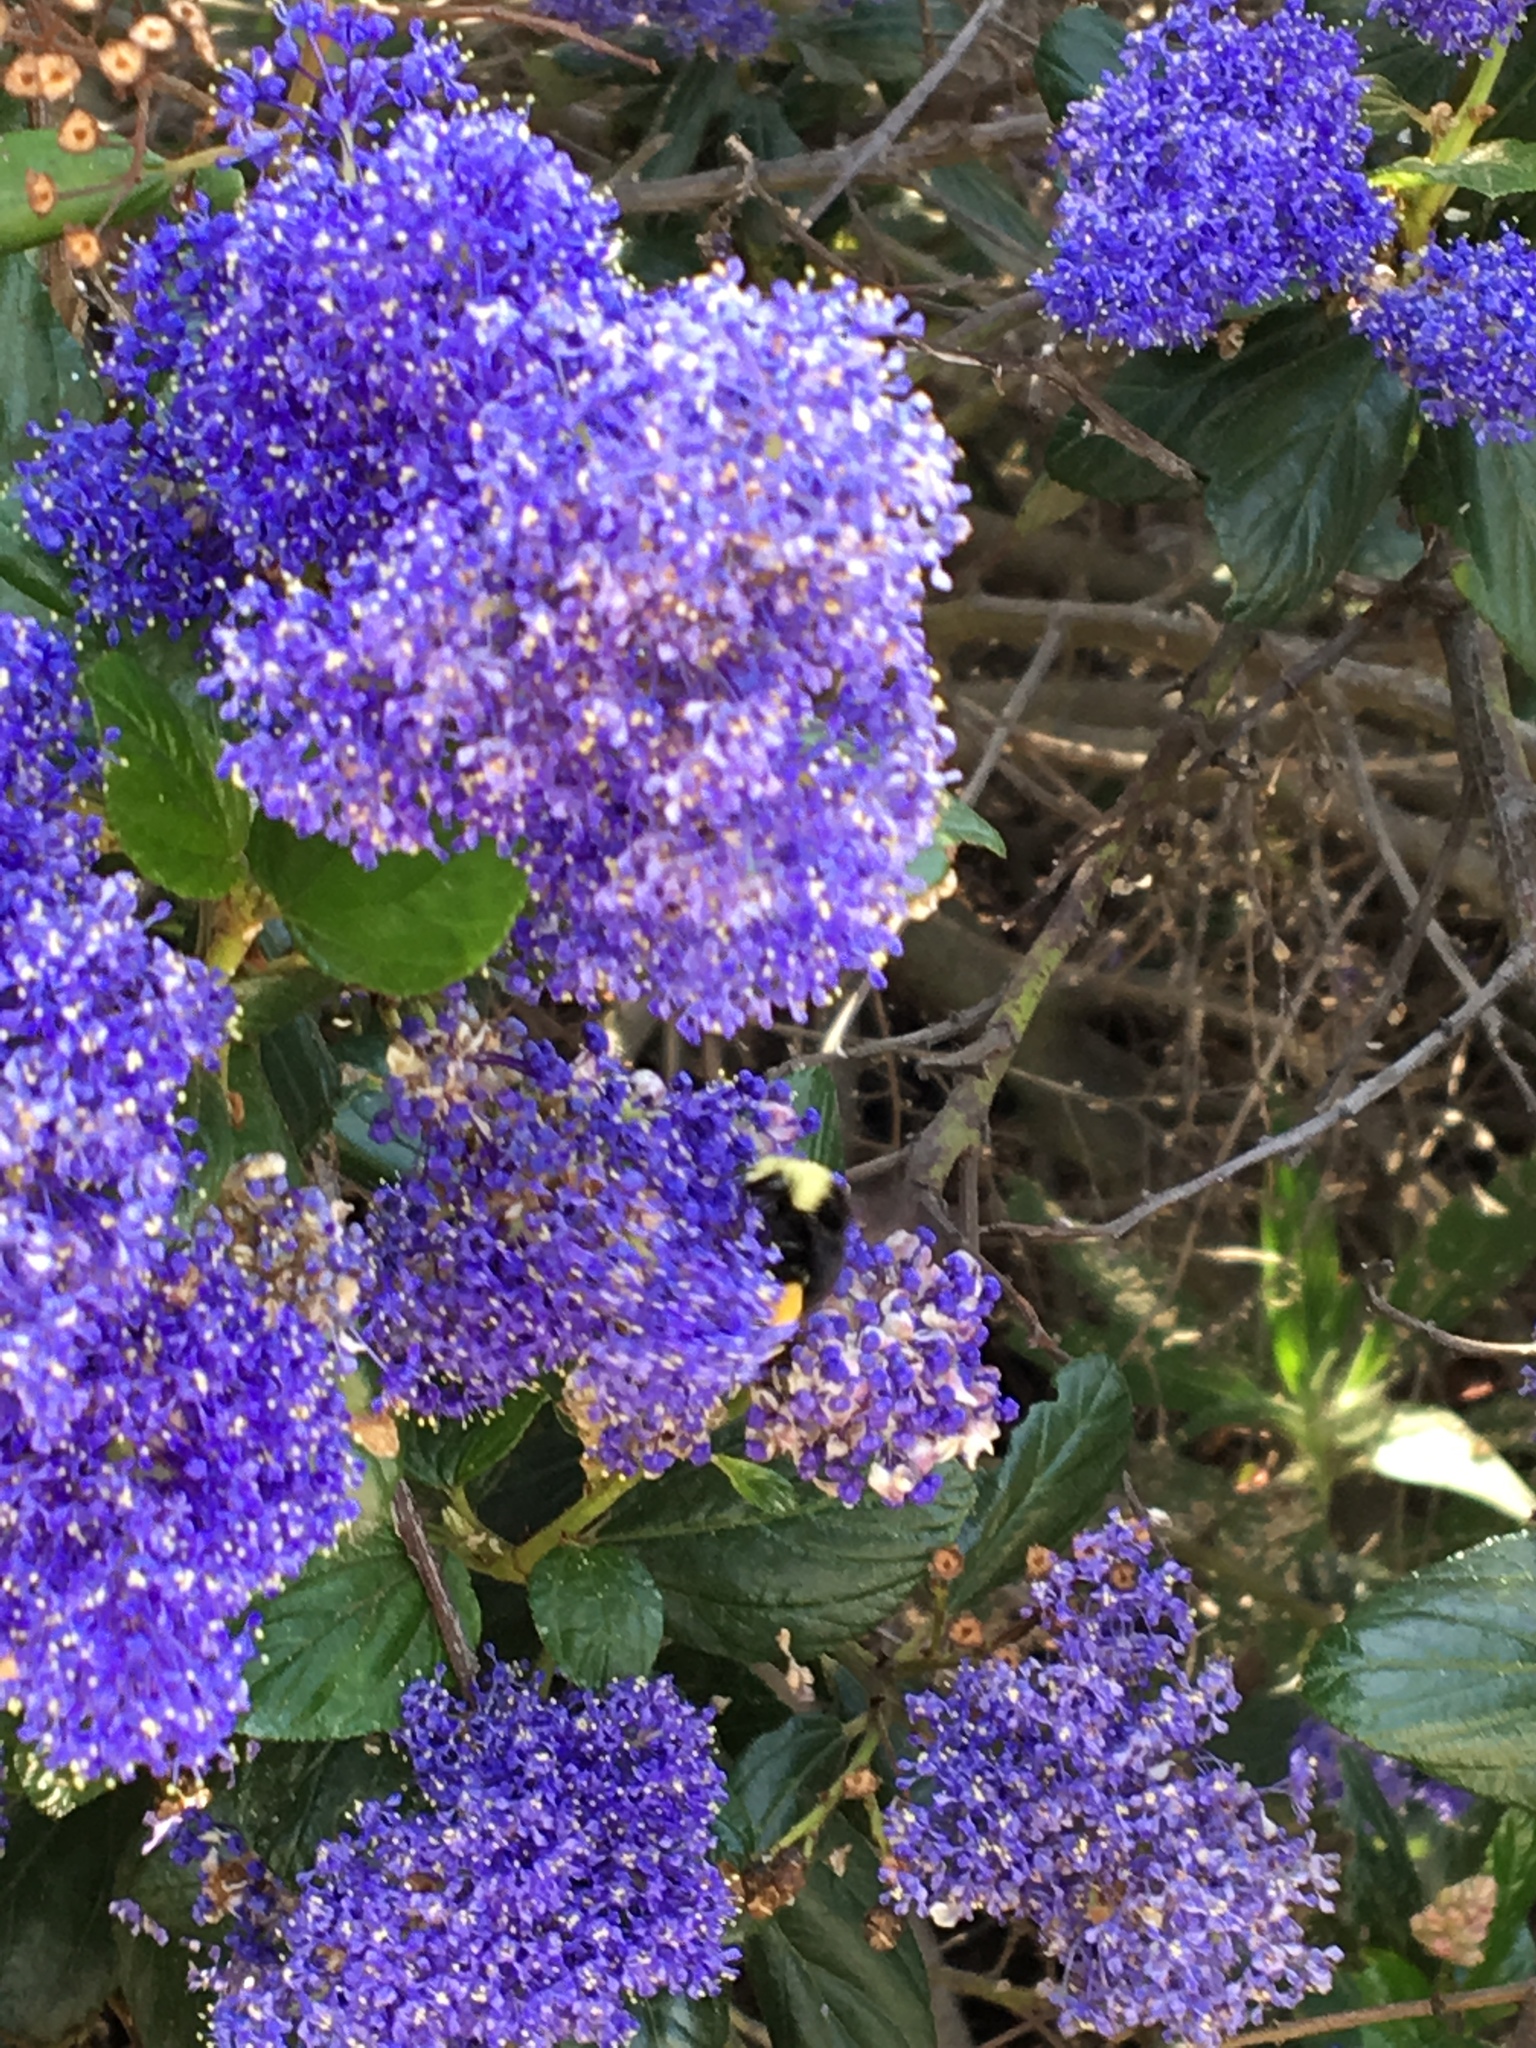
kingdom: Animalia
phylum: Arthropoda
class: Insecta
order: Hymenoptera
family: Apidae
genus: Pyrobombus
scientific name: Pyrobombus
